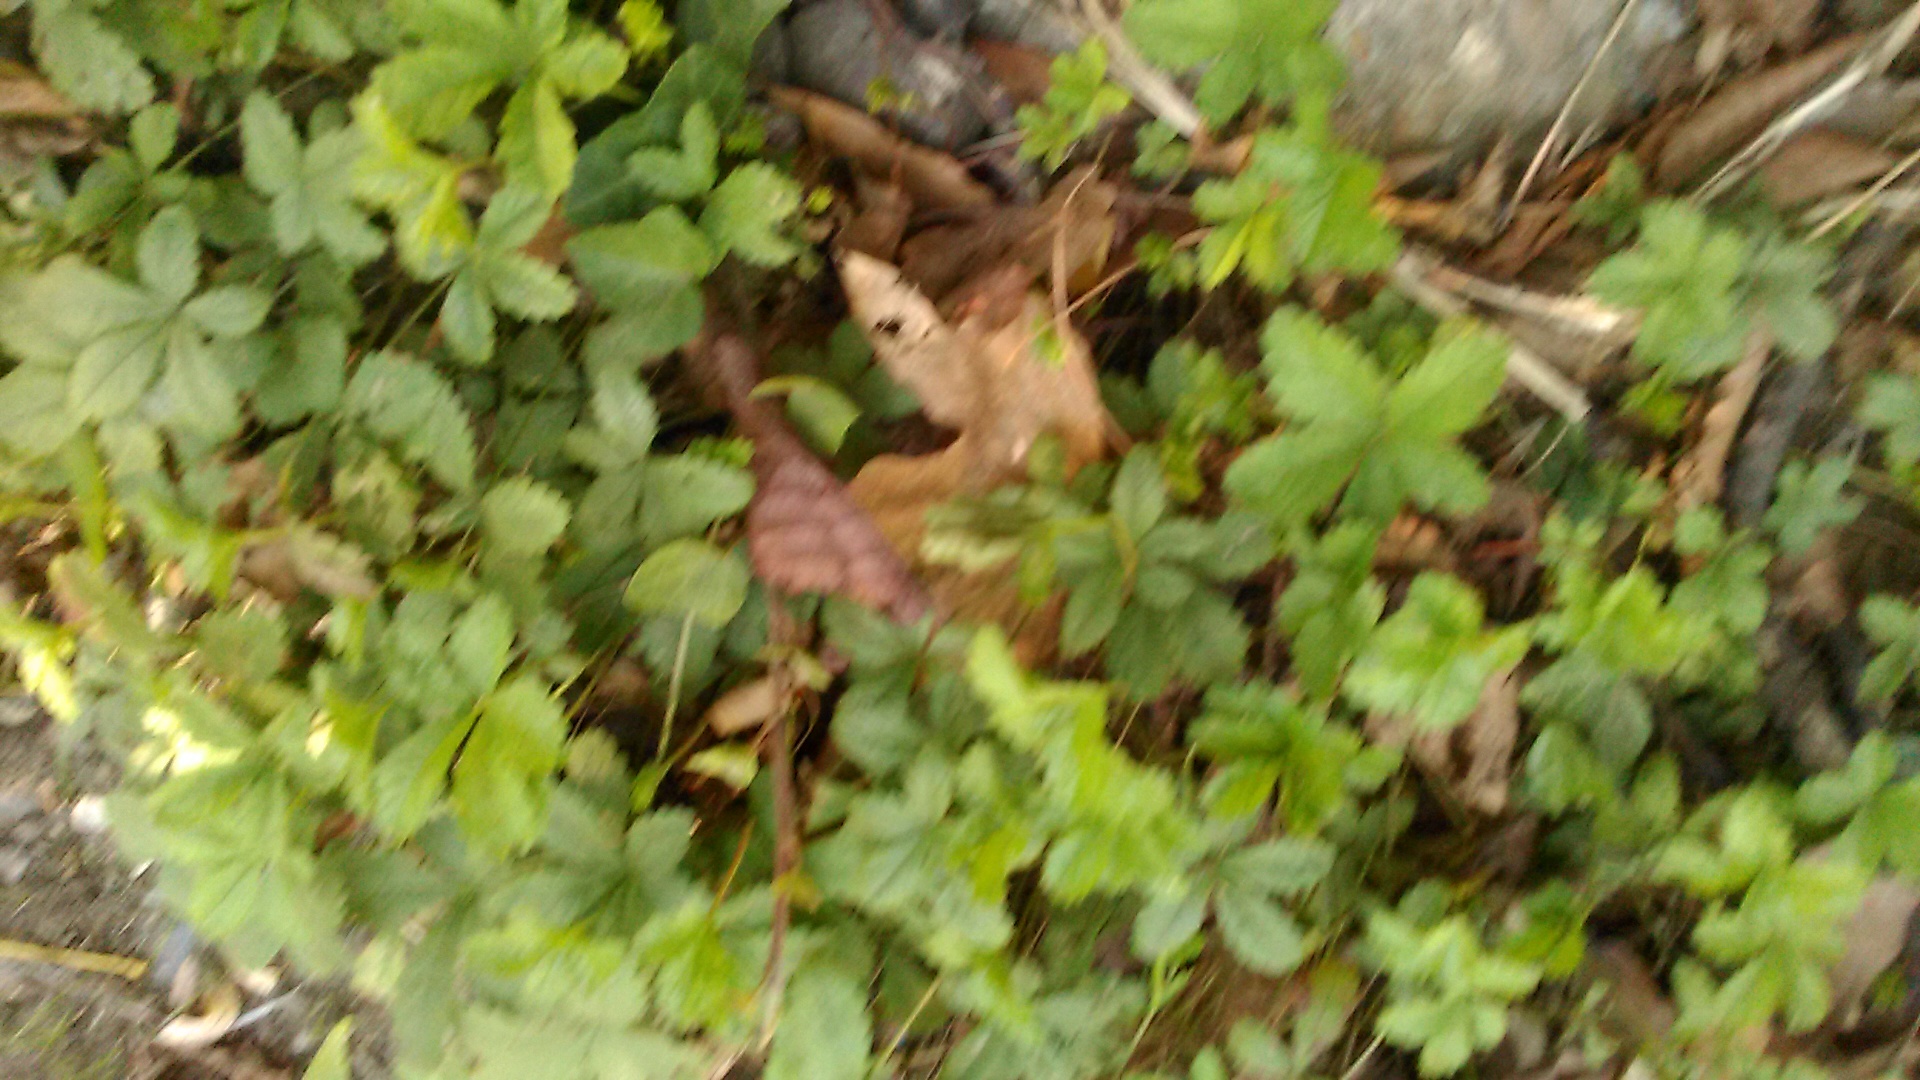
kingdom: Plantae
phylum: Tracheophyta
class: Magnoliopsida
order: Rosales
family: Rosaceae
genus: Potentilla
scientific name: Potentilla reptans
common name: Creeping cinquefoil
